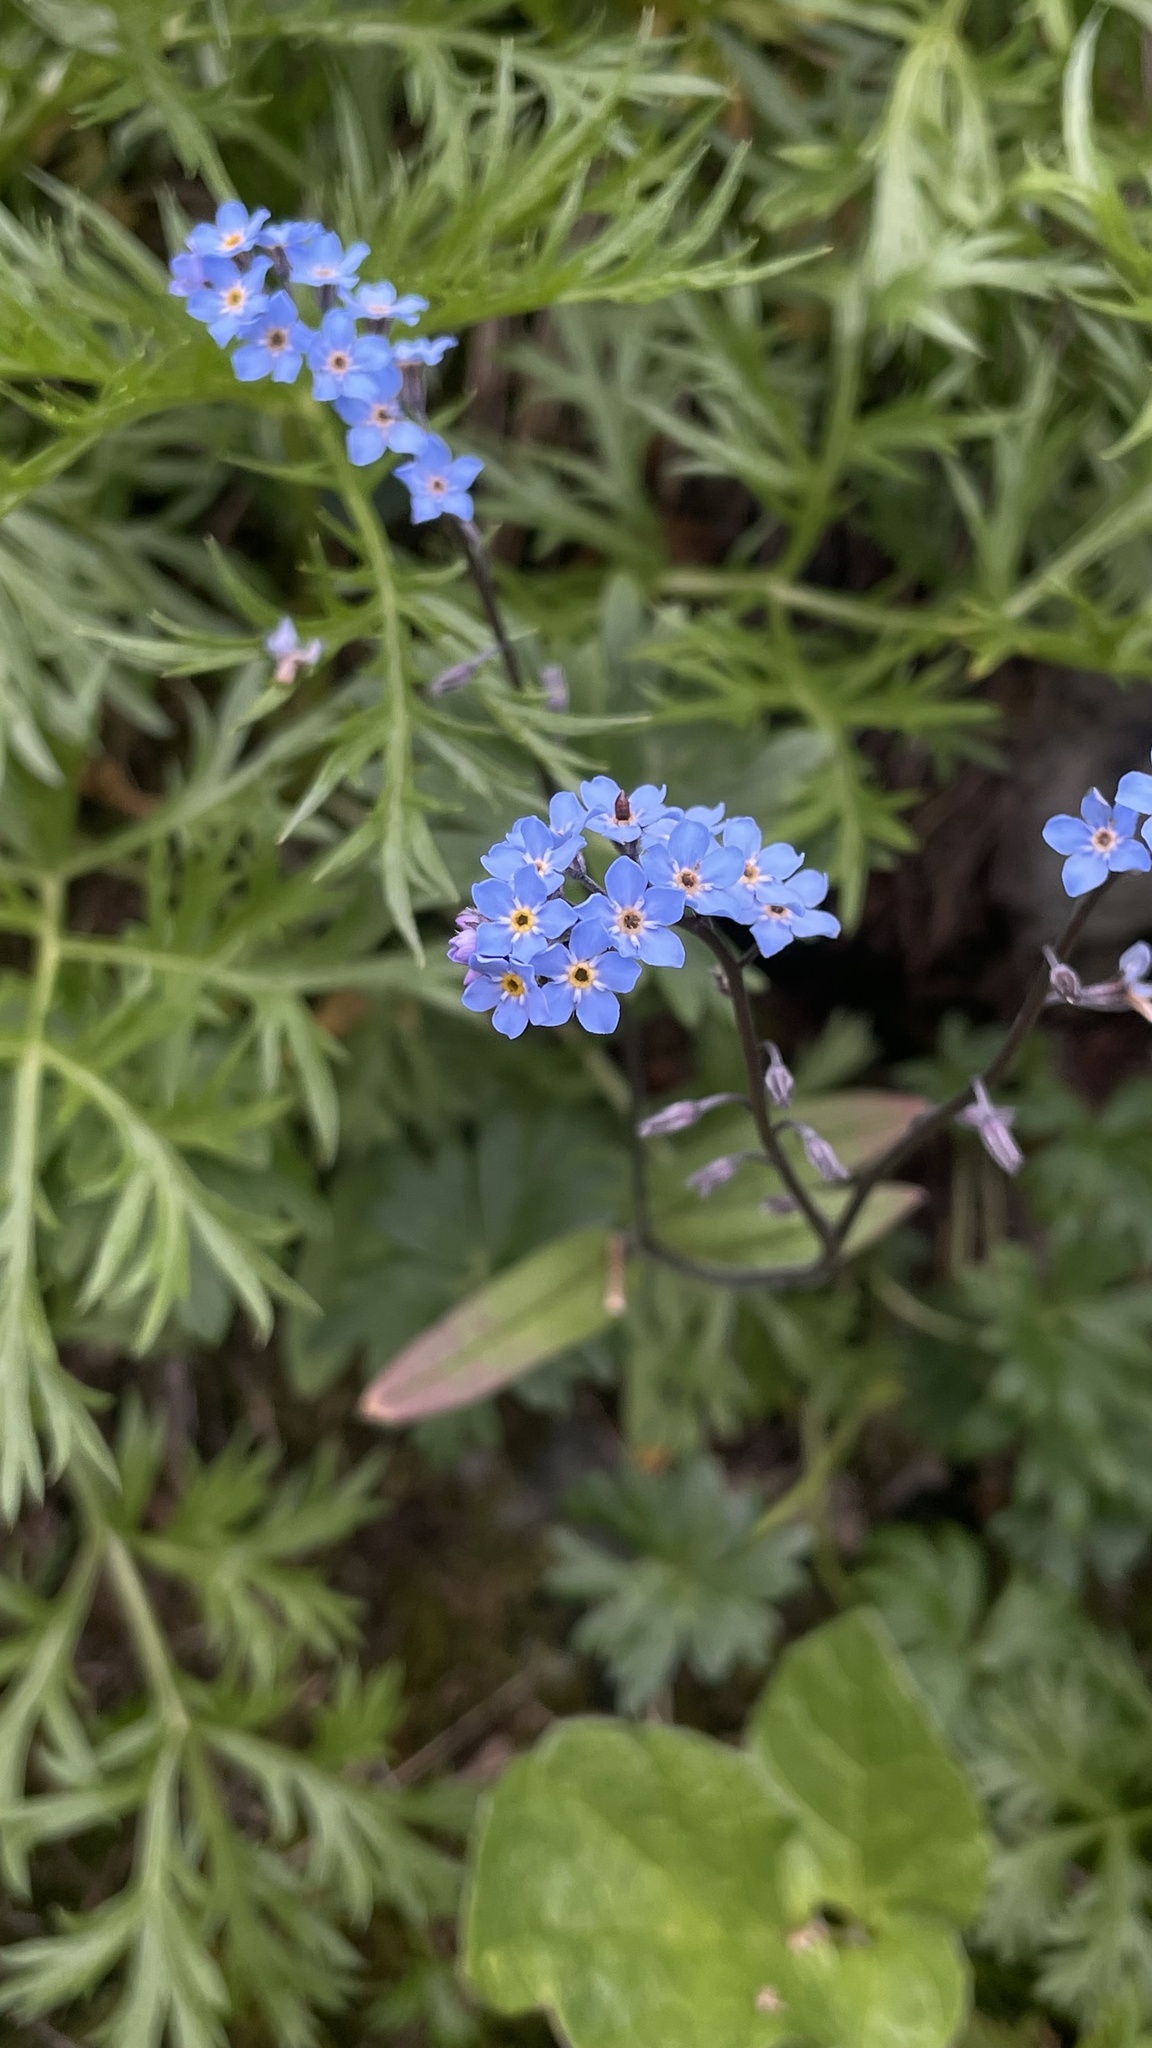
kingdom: Plantae
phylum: Tracheophyta
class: Magnoliopsida
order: Boraginales
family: Boraginaceae
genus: Myosotis
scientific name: Myosotis asiatica
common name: Asian forget-me-not
